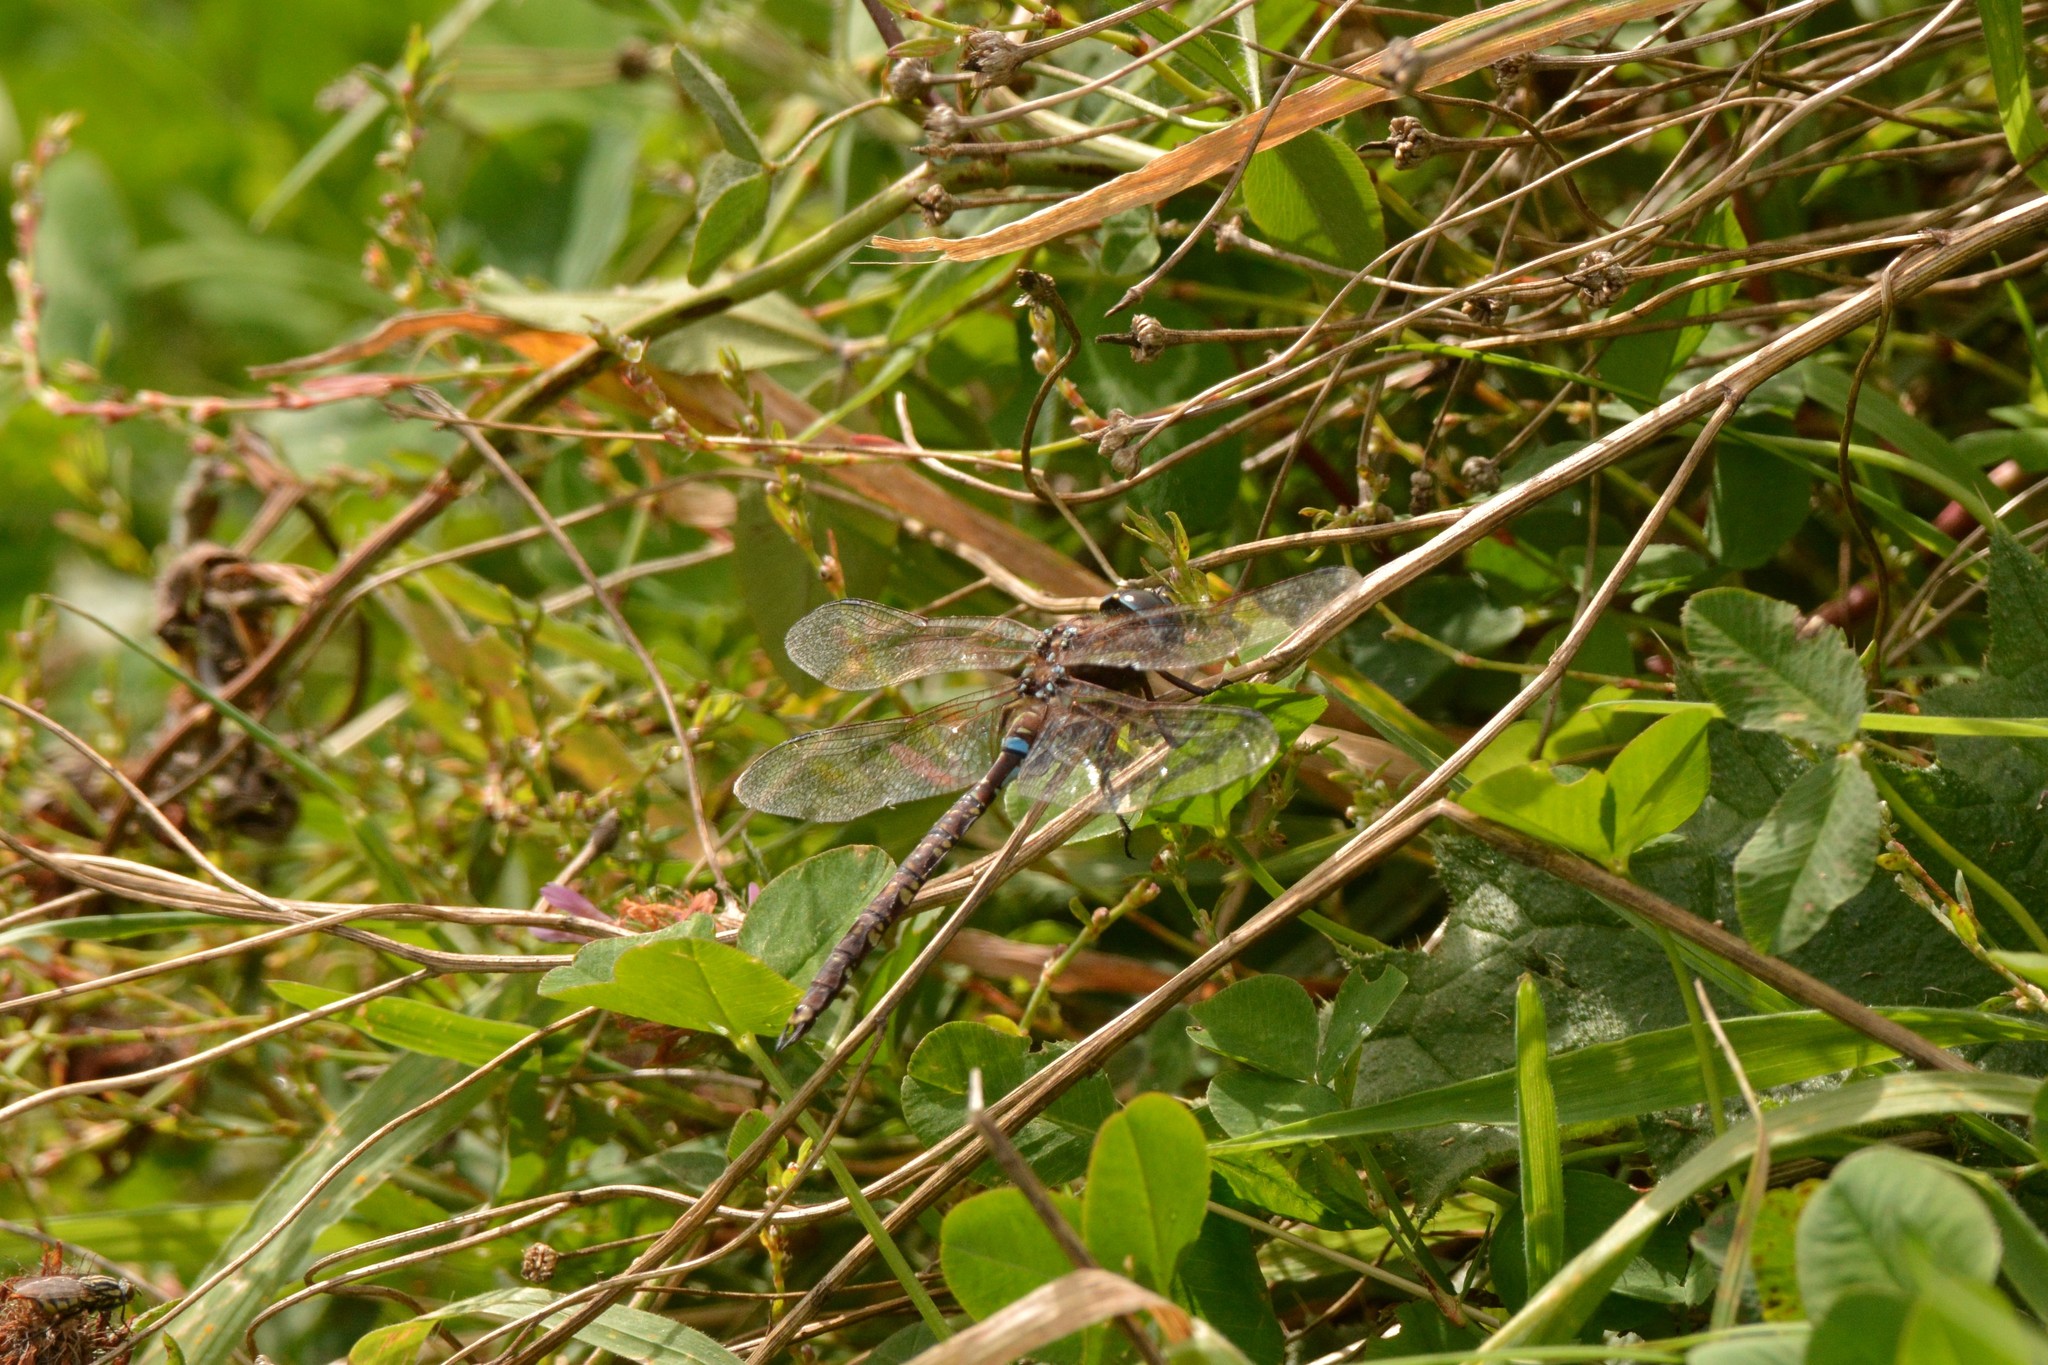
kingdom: Animalia
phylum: Arthropoda
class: Insecta
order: Odonata
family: Aeshnidae
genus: Aeshna
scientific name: Aeshna brevistyla
